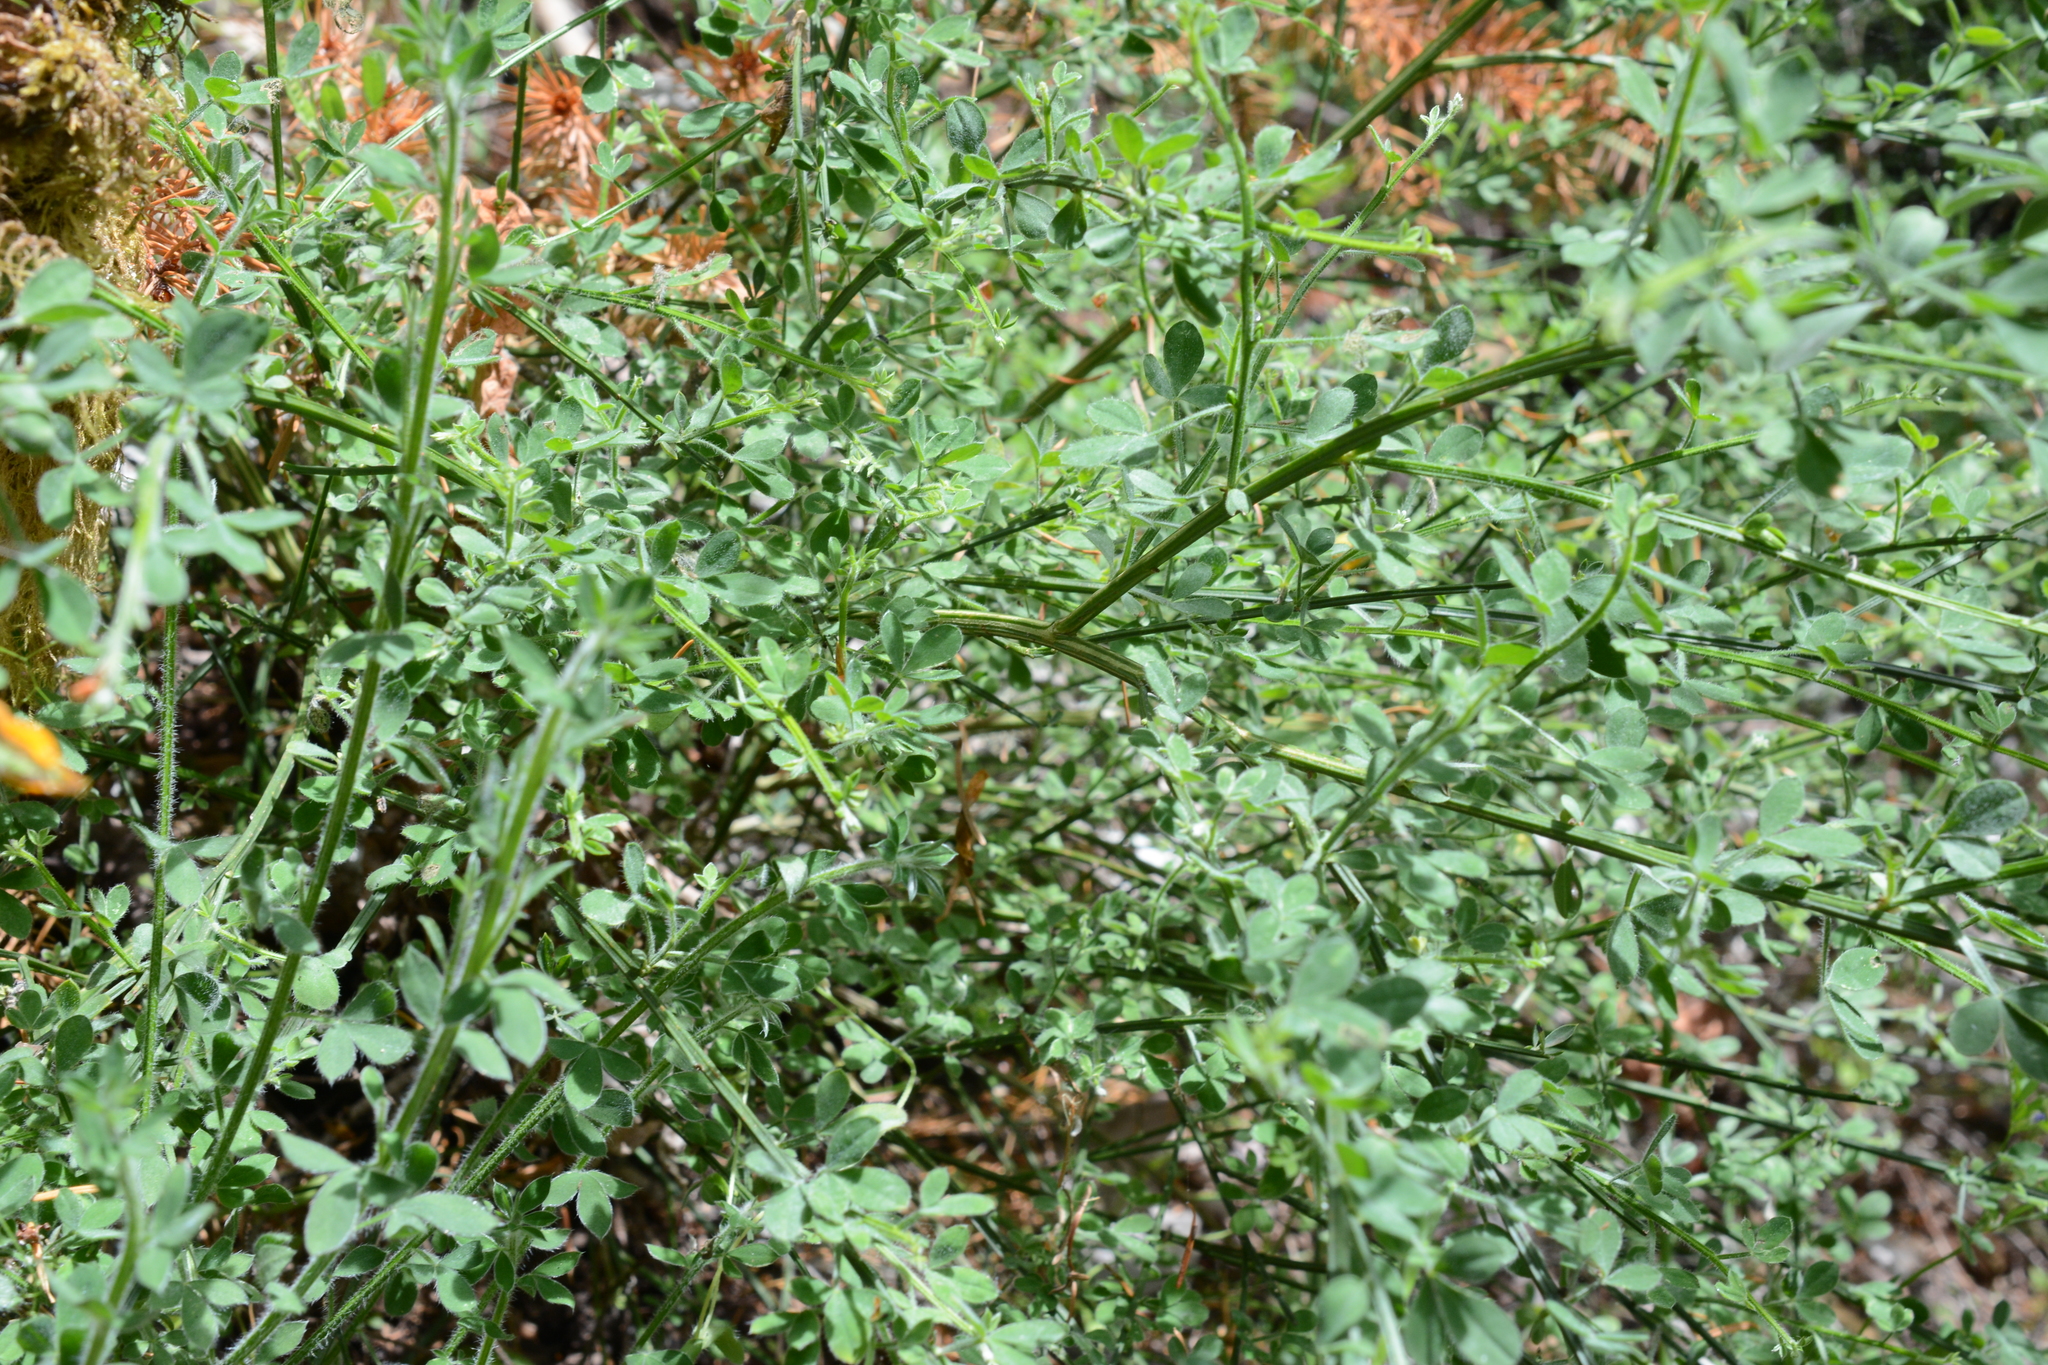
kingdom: Plantae
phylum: Tracheophyta
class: Magnoliopsida
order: Fabales
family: Fabaceae
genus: Cytisus
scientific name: Cytisus scoparius
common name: Scotch broom
